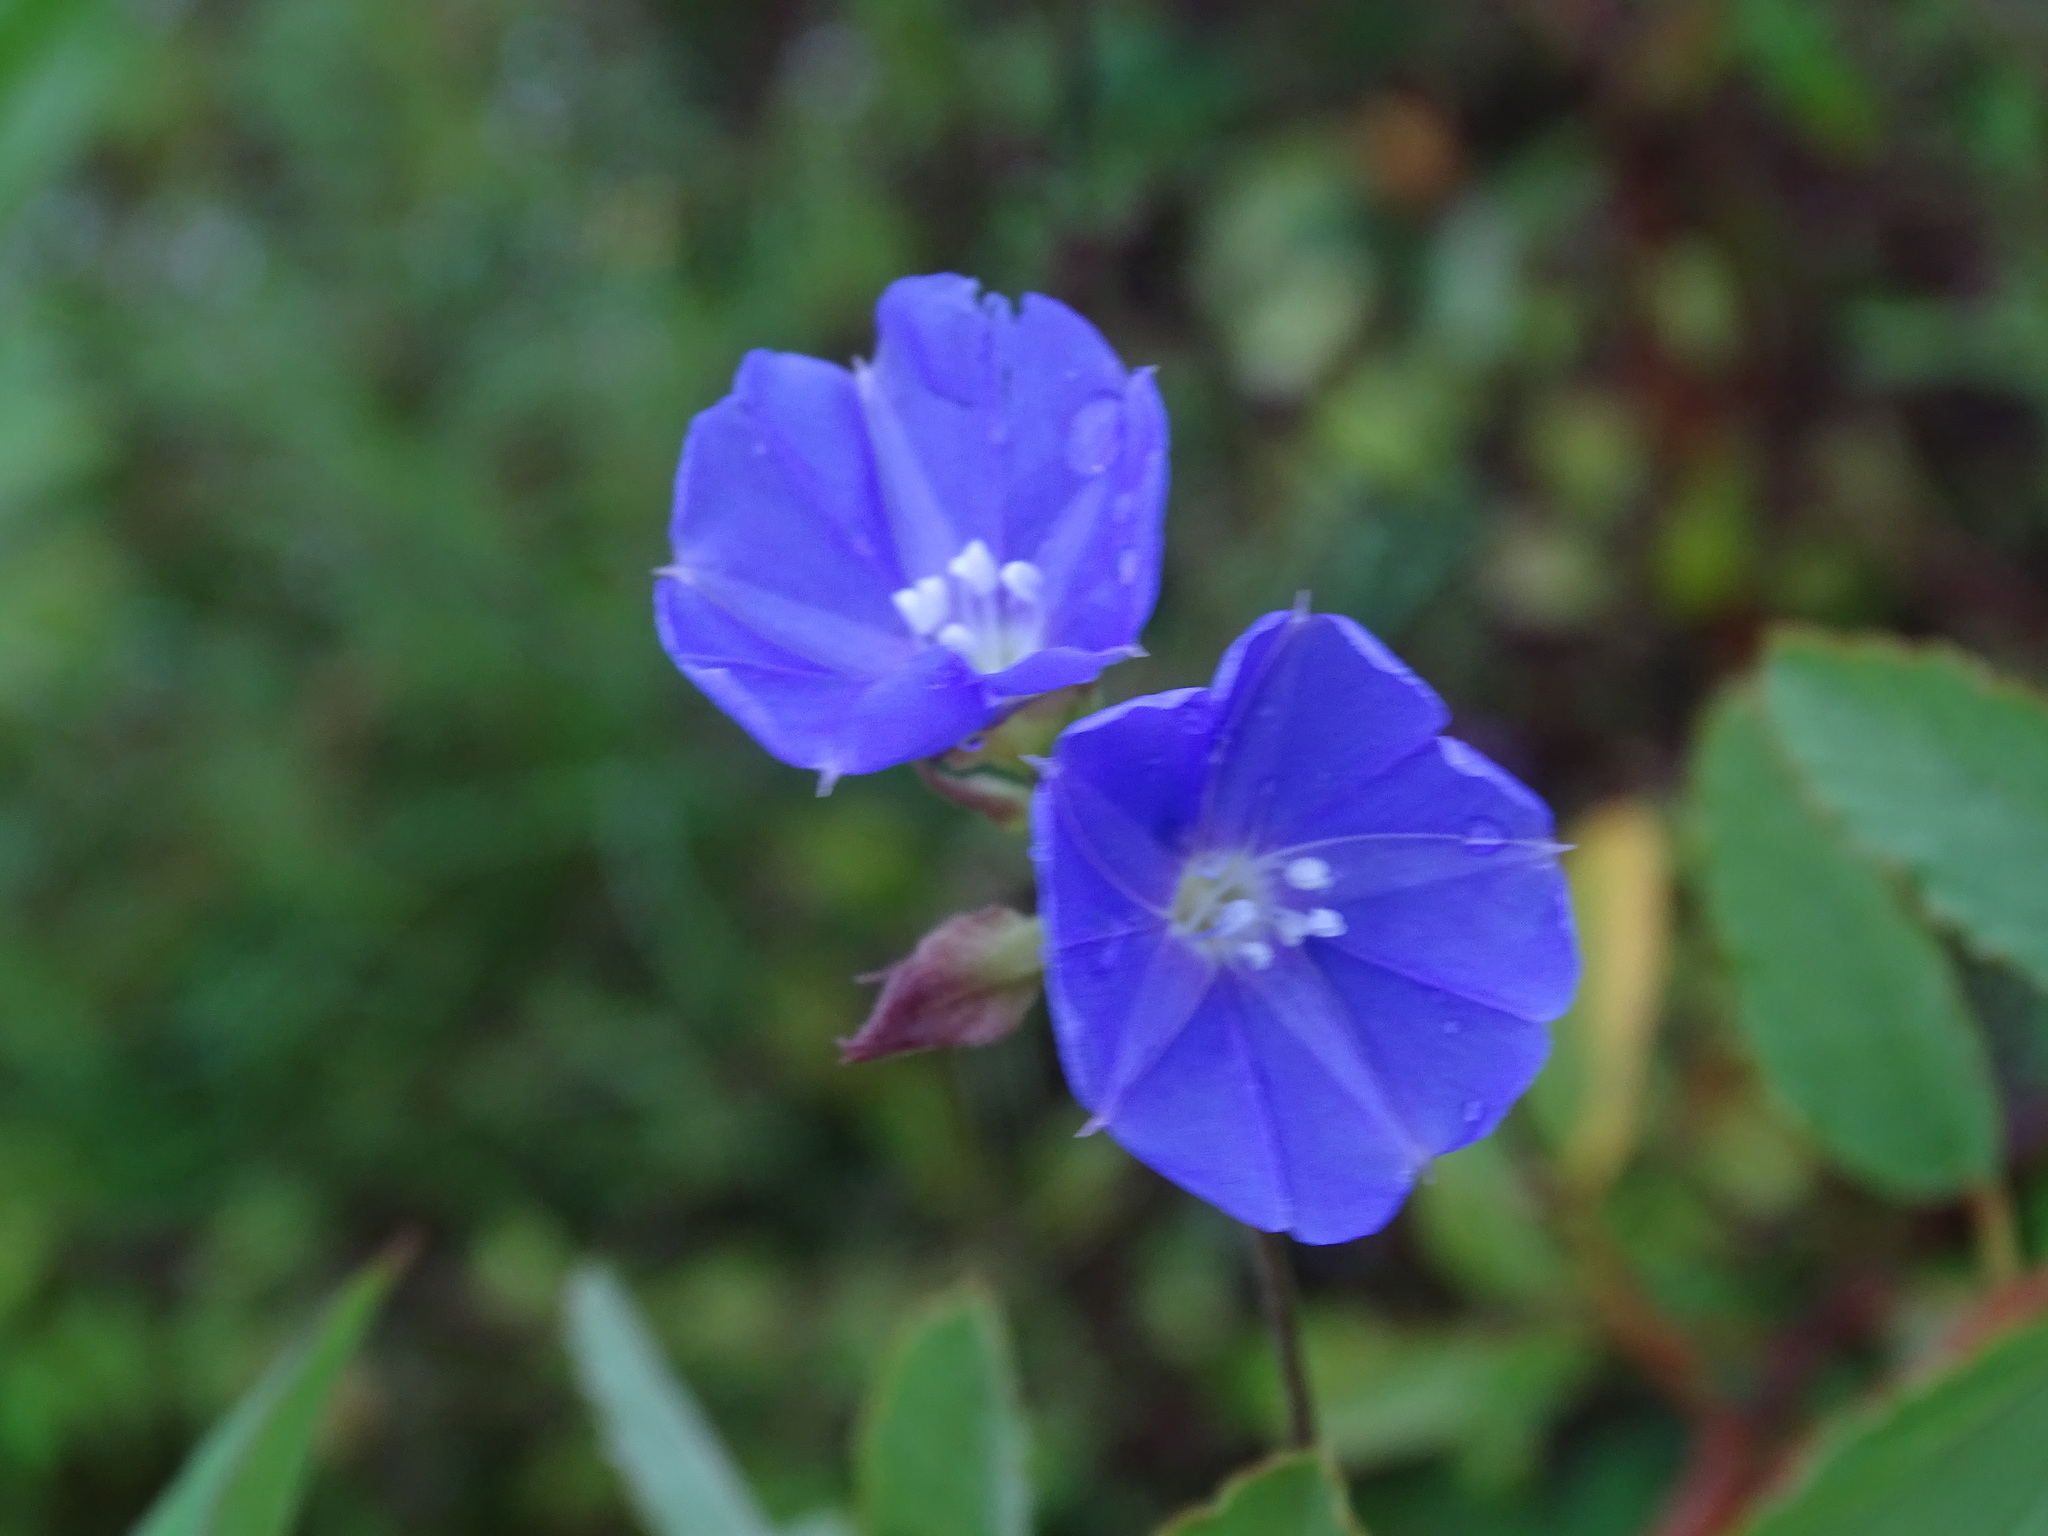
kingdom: Plantae
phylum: Tracheophyta
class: Magnoliopsida
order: Solanales
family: Convolvulaceae
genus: Jacquemontia
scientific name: Jacquemontia pentanthos
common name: Skyblue clustervine
